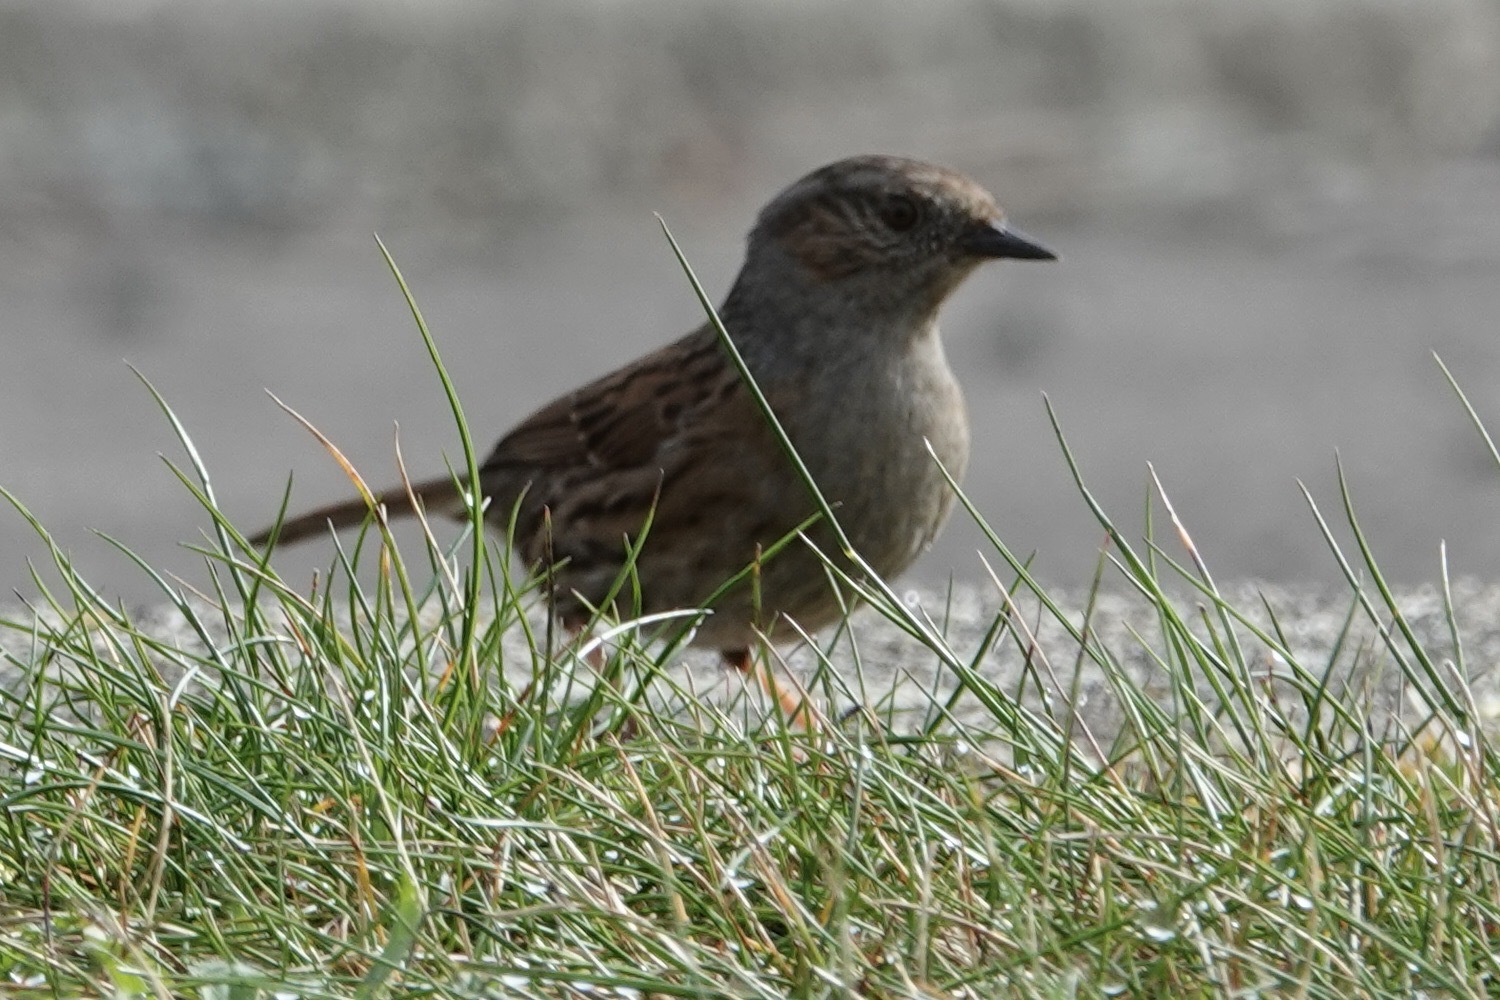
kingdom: Animalia
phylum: Chordata
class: Aves
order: Passeriformes
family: Prunellidae
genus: Prunella
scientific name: Prunella modularis
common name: Dunnock
